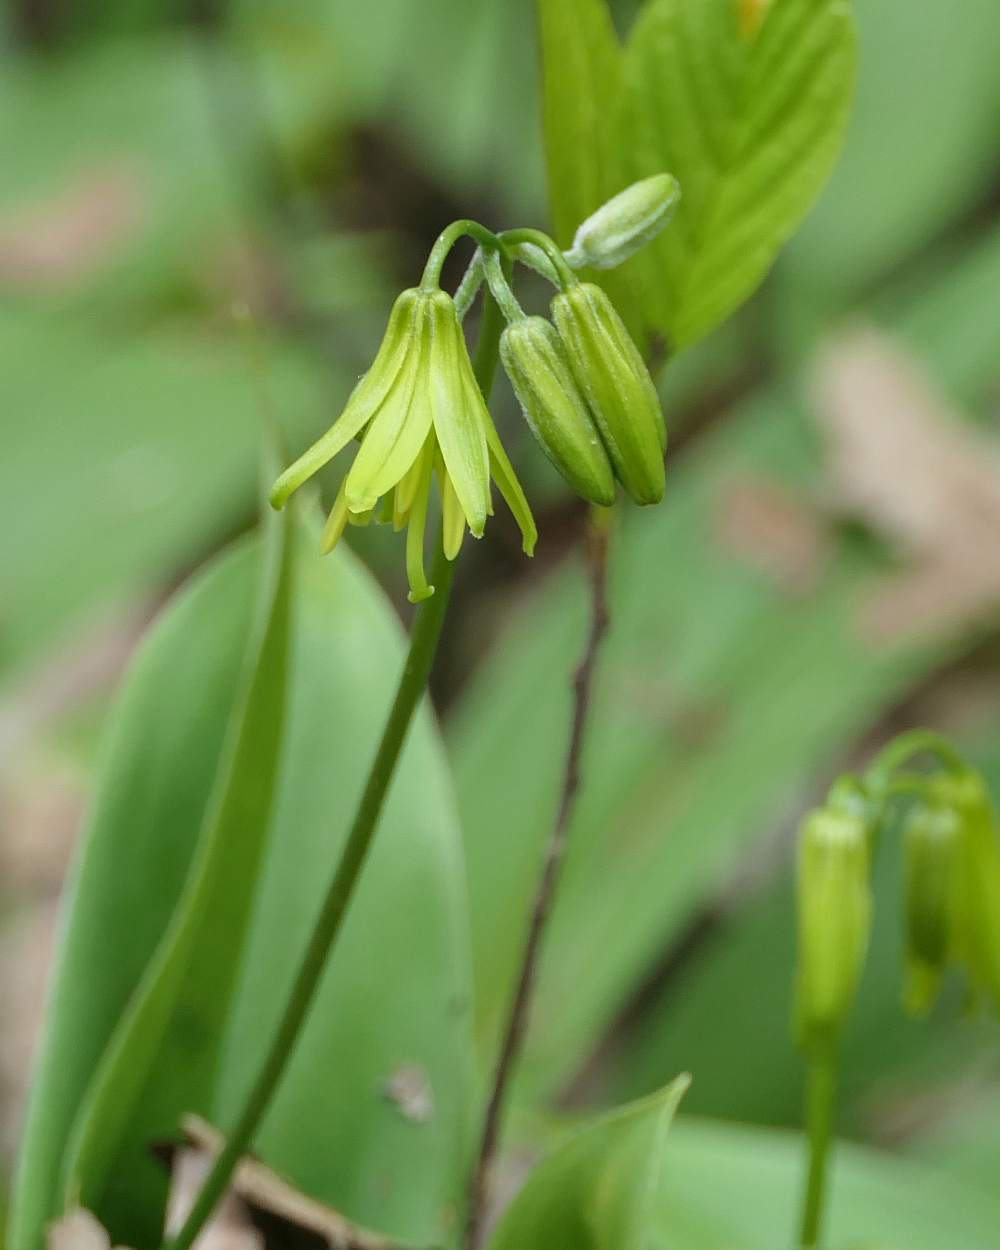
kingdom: Plantae
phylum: Tracheophyta
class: Liliopsida
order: Liliales
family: Liliaceae
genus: Clintonia
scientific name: Clintonia borealis
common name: Yellow clintonia
